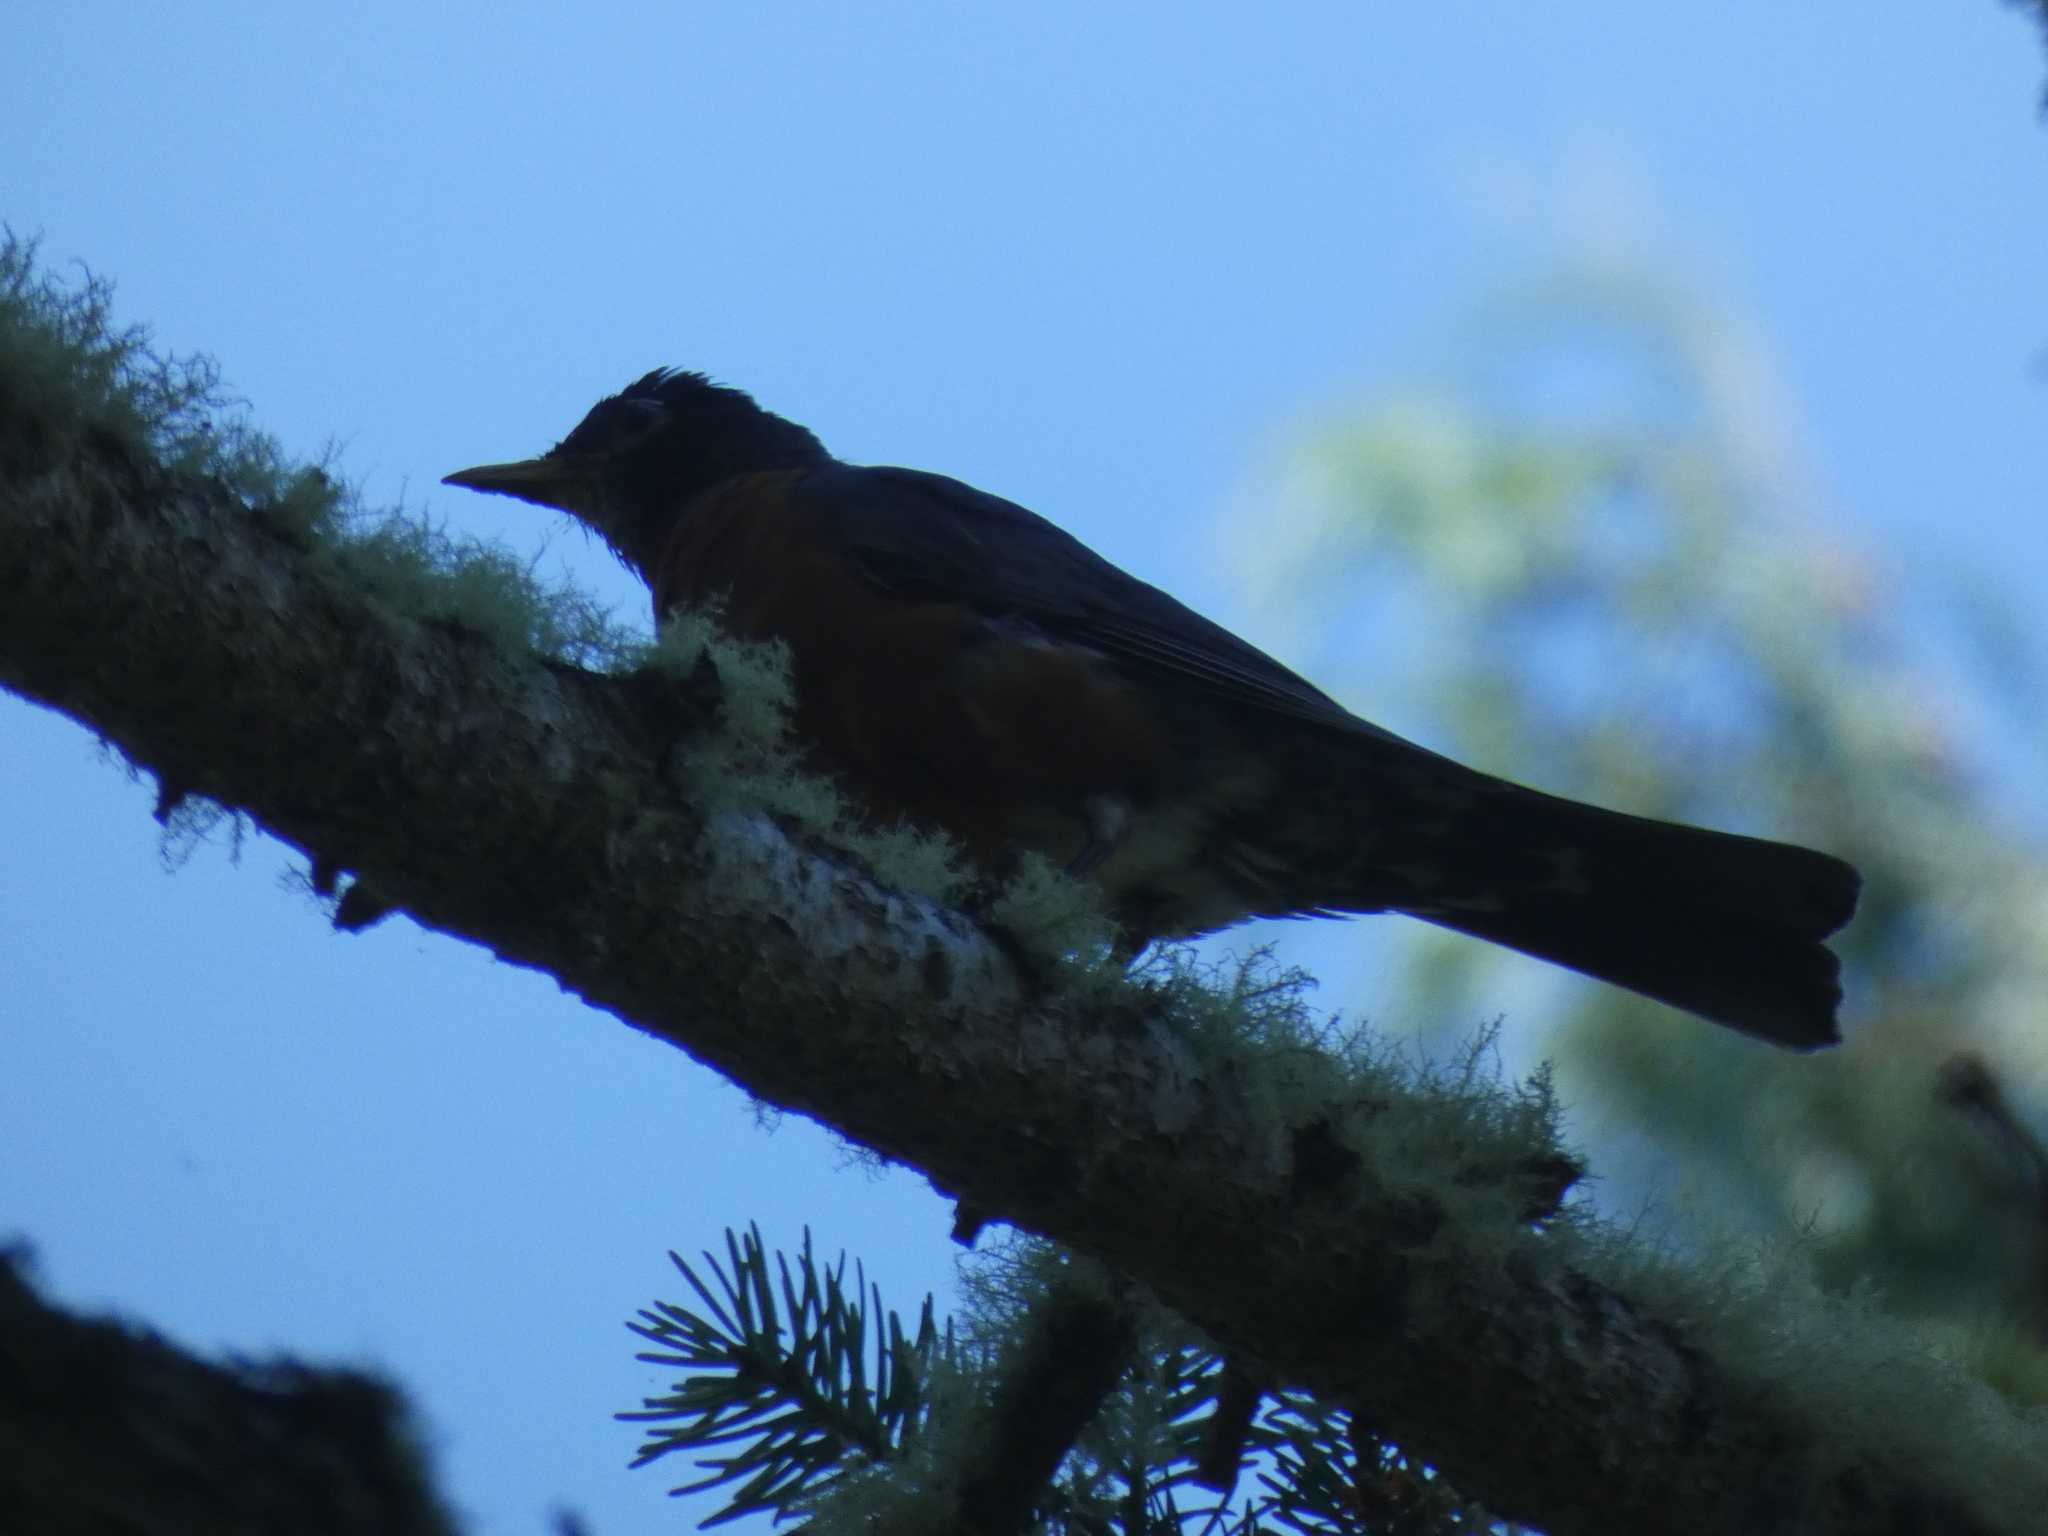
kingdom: Animalia
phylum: Chordata
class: Aves
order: Passeriformes
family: Turdidae
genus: Turdus
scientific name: Turdus migratorius
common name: American robin
